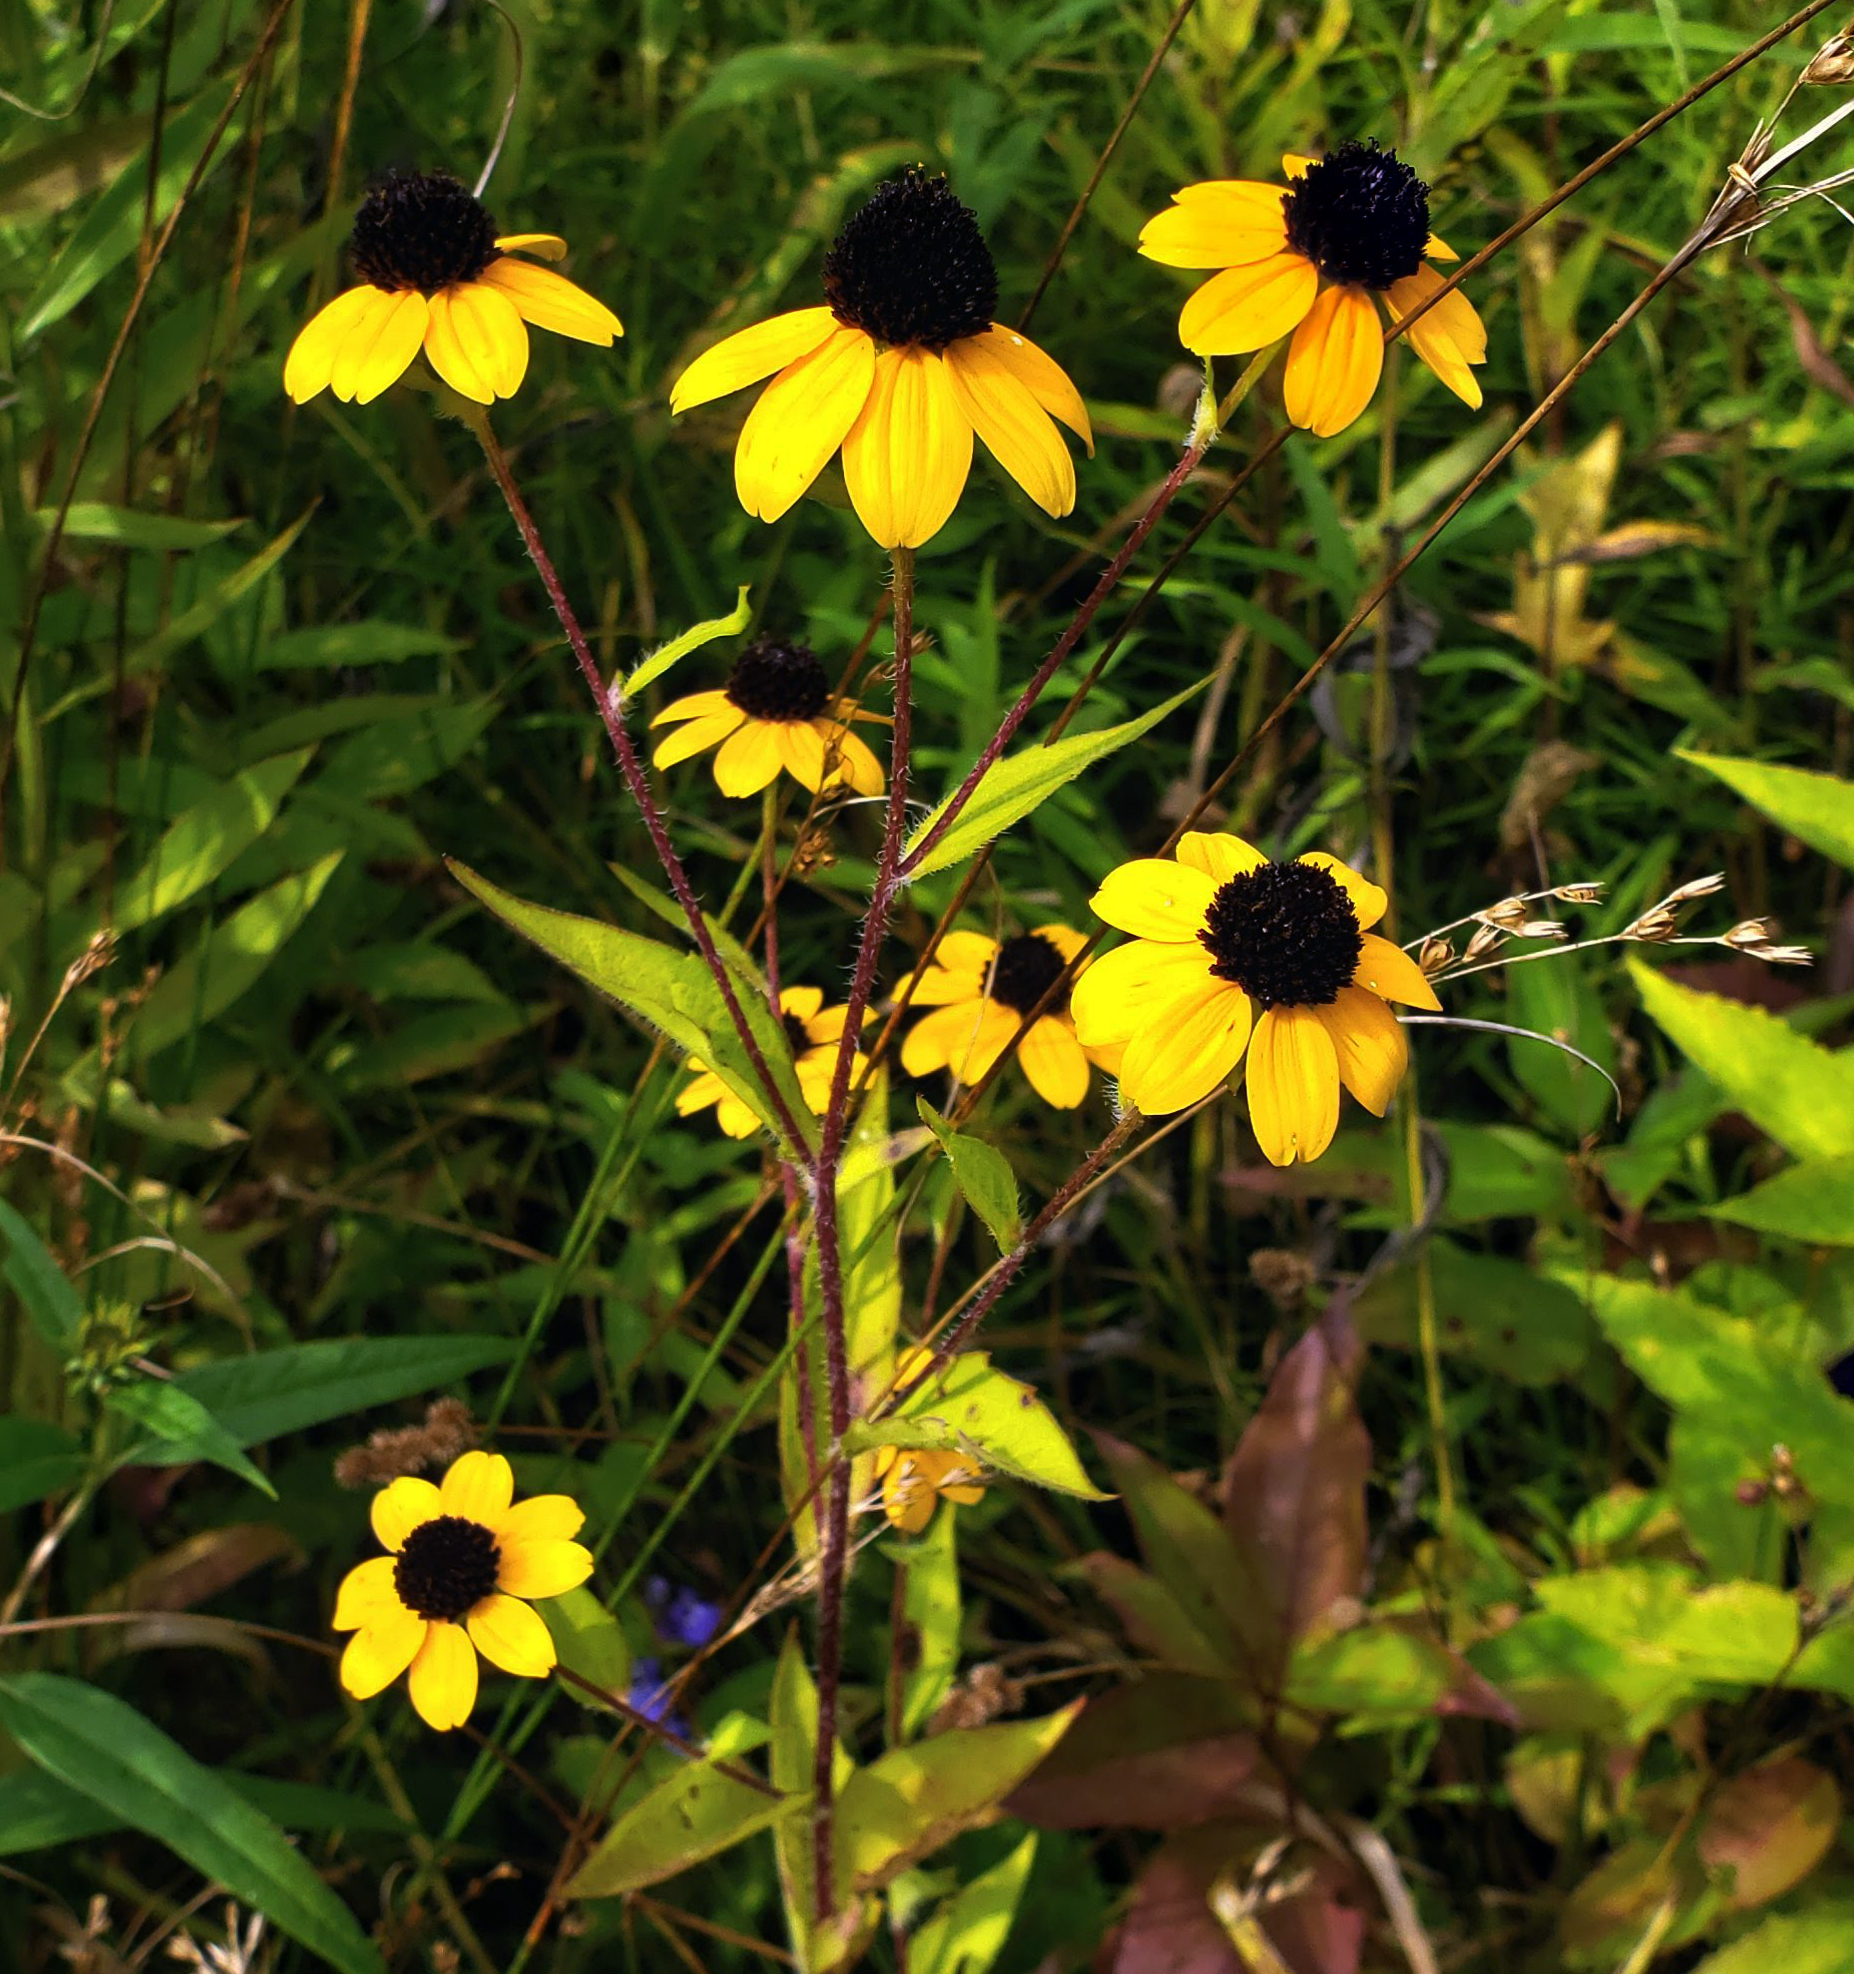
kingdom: Plantae
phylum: Tracheophyta
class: Magnoliopsida
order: Asterales
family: Asteraceae
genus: Rudbeckia
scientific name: Rudbeckia triloba
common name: Thin-leaved coneflower
